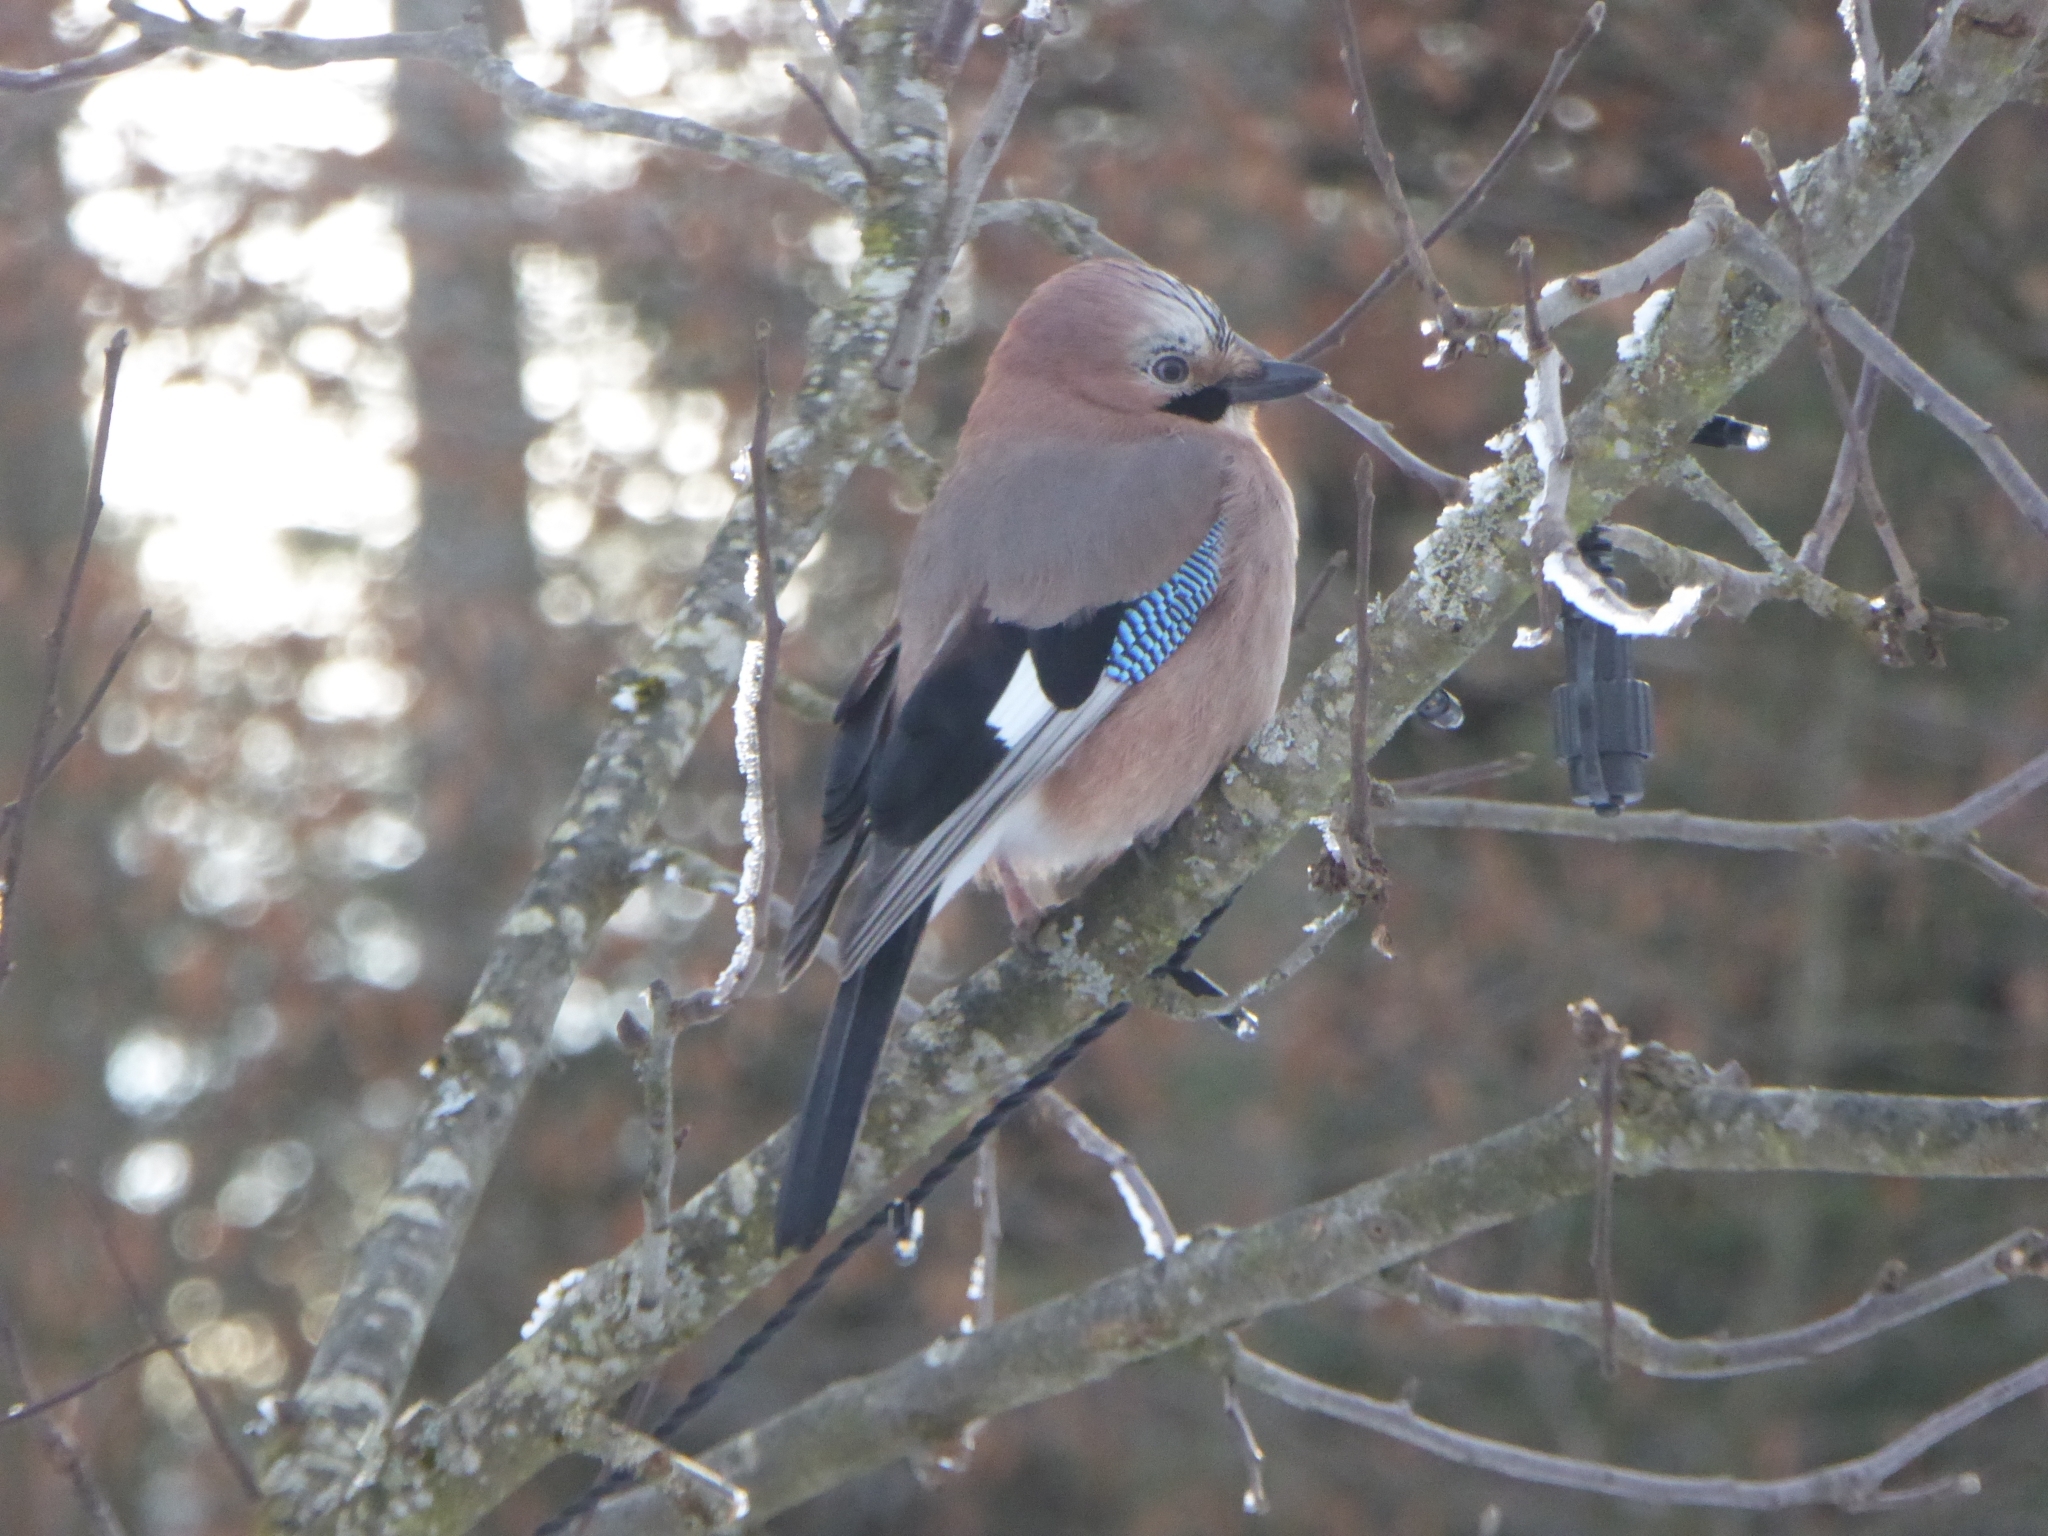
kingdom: Animalia
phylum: Chordata
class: Aves
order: Passeriformes
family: Corvidae
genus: Garrulus
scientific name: Garrulus glandarius
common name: Eurasian jay
